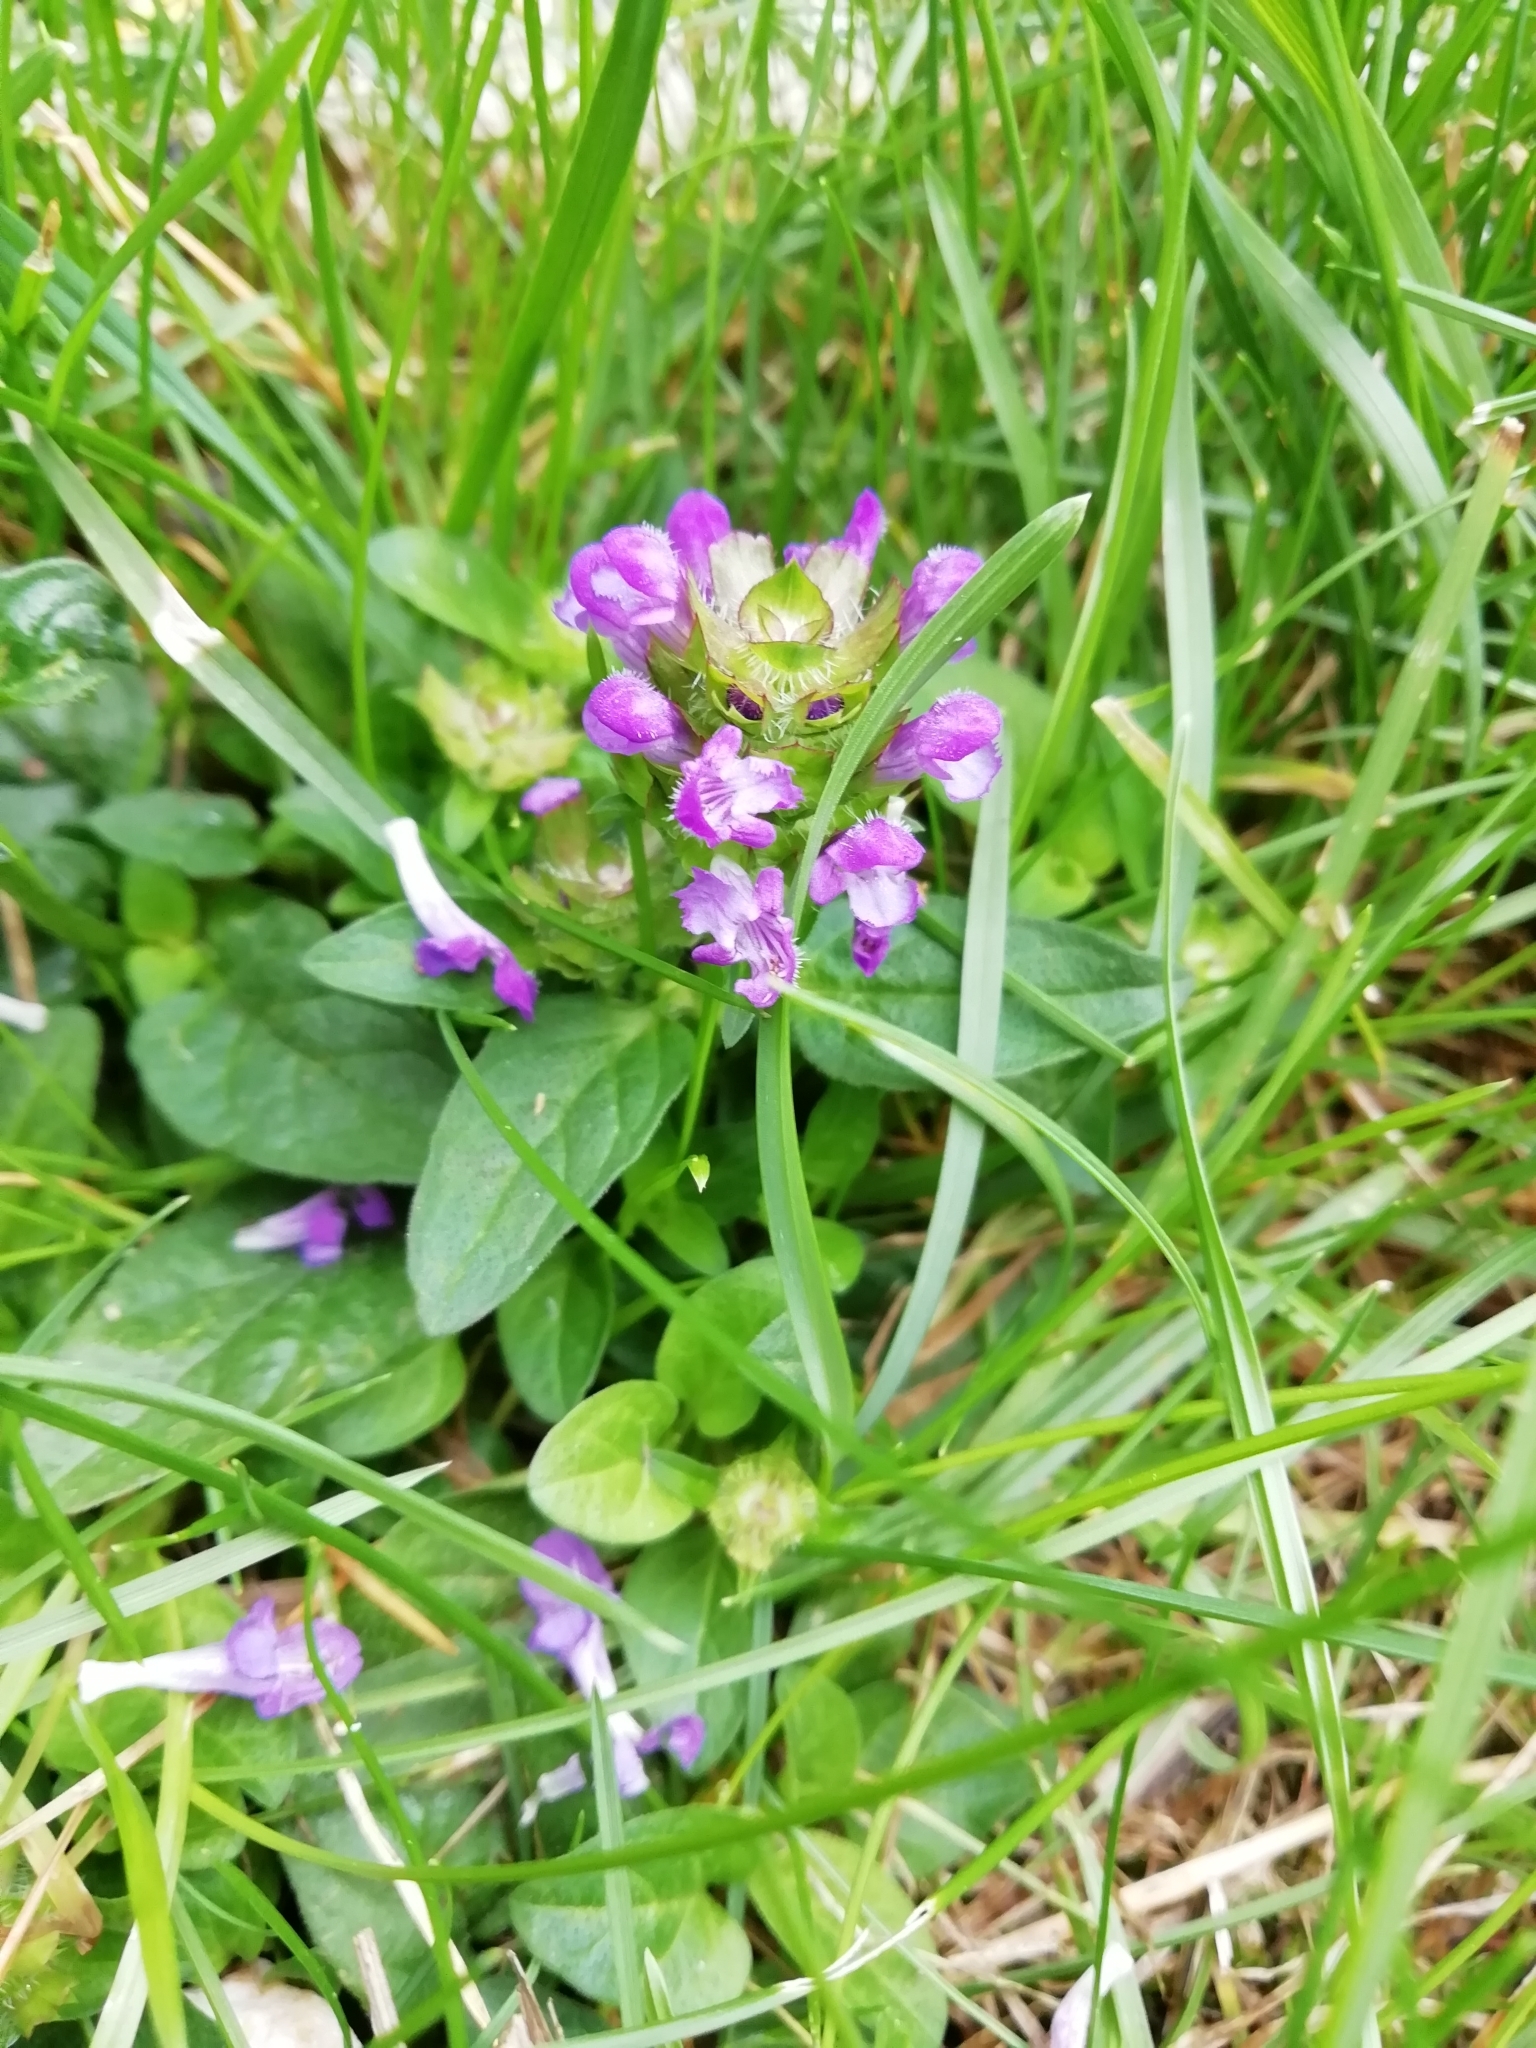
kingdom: Plantae
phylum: Tracheophyta
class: Magnoliopsida
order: Lamiales
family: Lamiaceae
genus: Prunella
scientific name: Prunella vulgaris
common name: Heal-all
